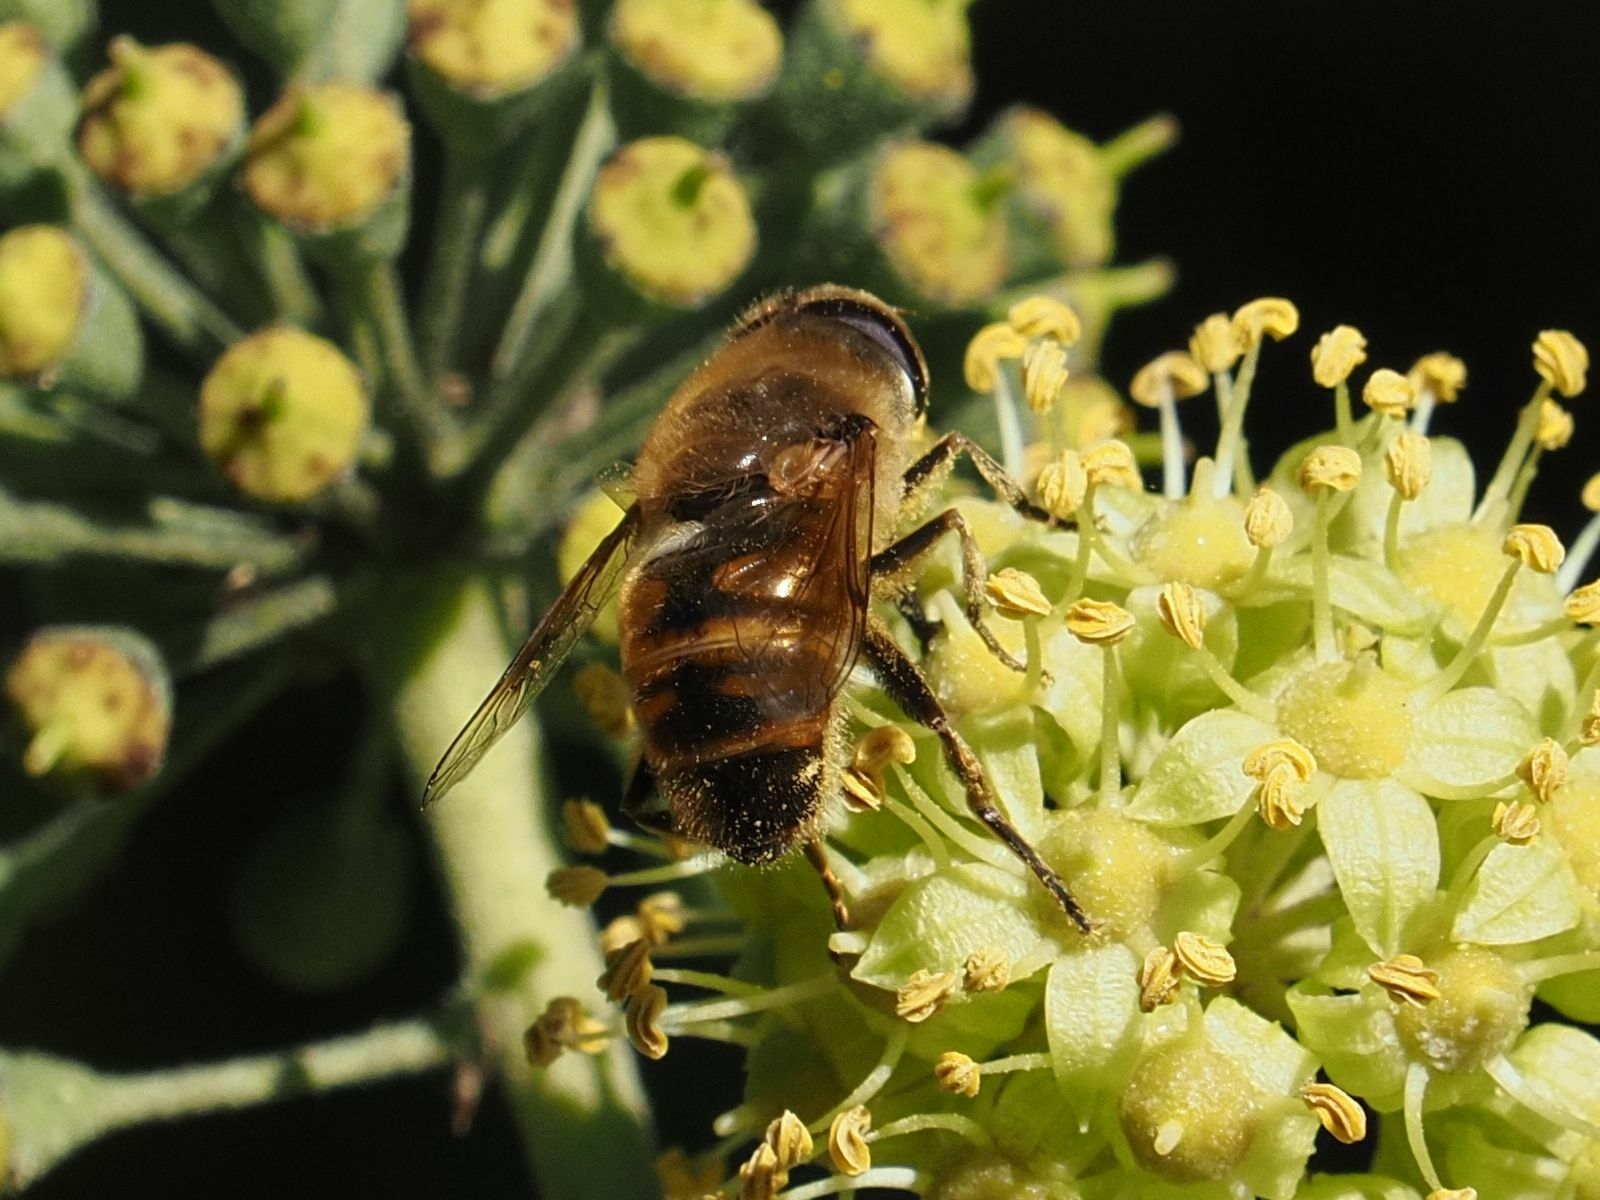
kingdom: Animalia
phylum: Arthropoda
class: Insecta
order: Diptera
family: Syrphidae
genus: Eristalis
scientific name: Eristalis tenax
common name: Drone fly
